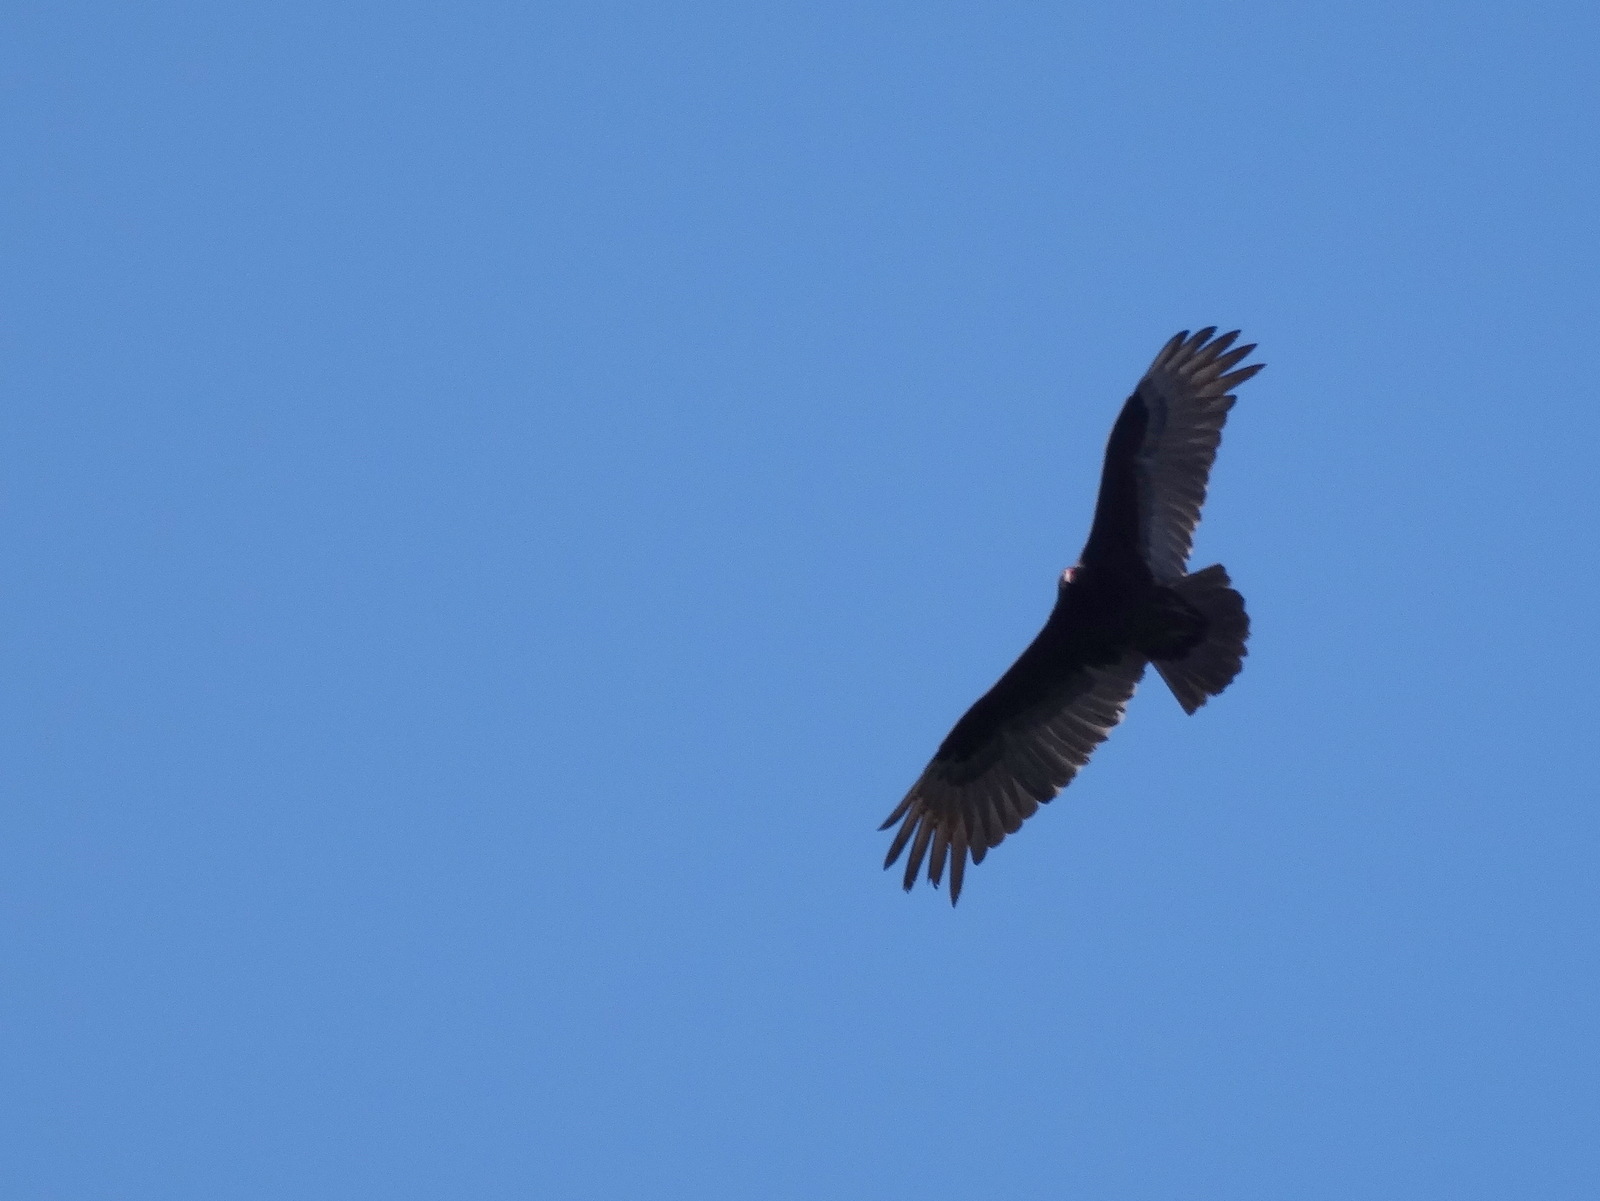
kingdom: Animalia
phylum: Chordata
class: Aves
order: Accipitriformes
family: Cathartidae
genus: Cathartes
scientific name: Cathartes aura
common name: Turkey vulture
